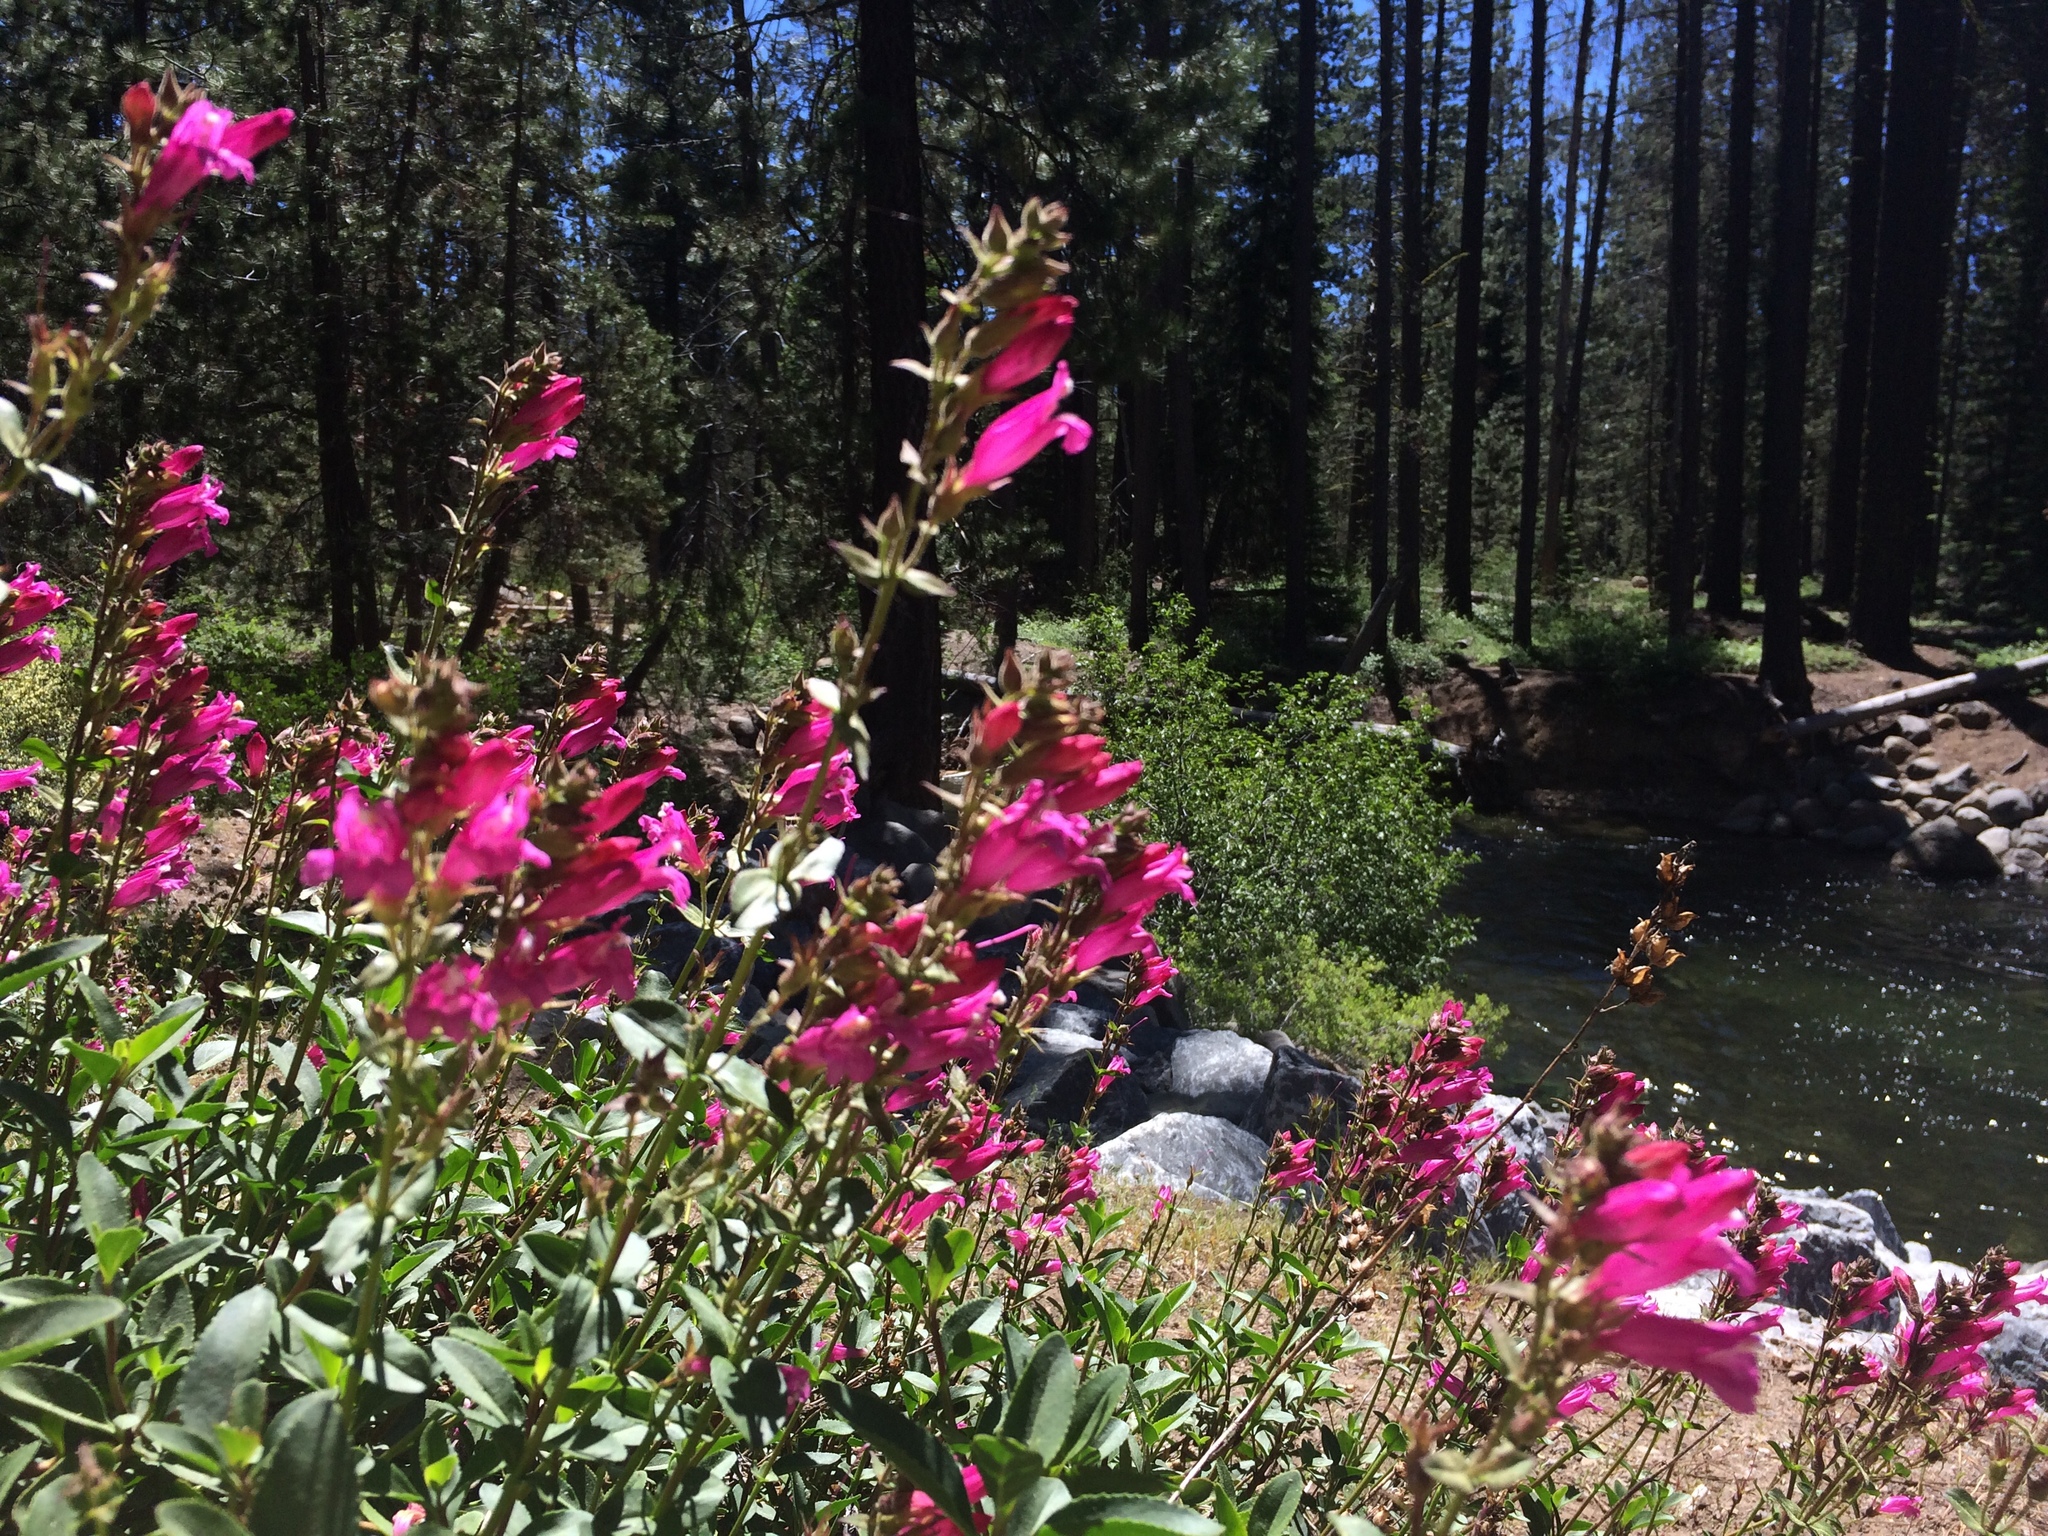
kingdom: Plantae
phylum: Tracheophyta
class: Magnoliopsida
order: Lamiales
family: Plantaginaceae
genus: Penstemon
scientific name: Penstemon newberryi
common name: Mountain-pride
